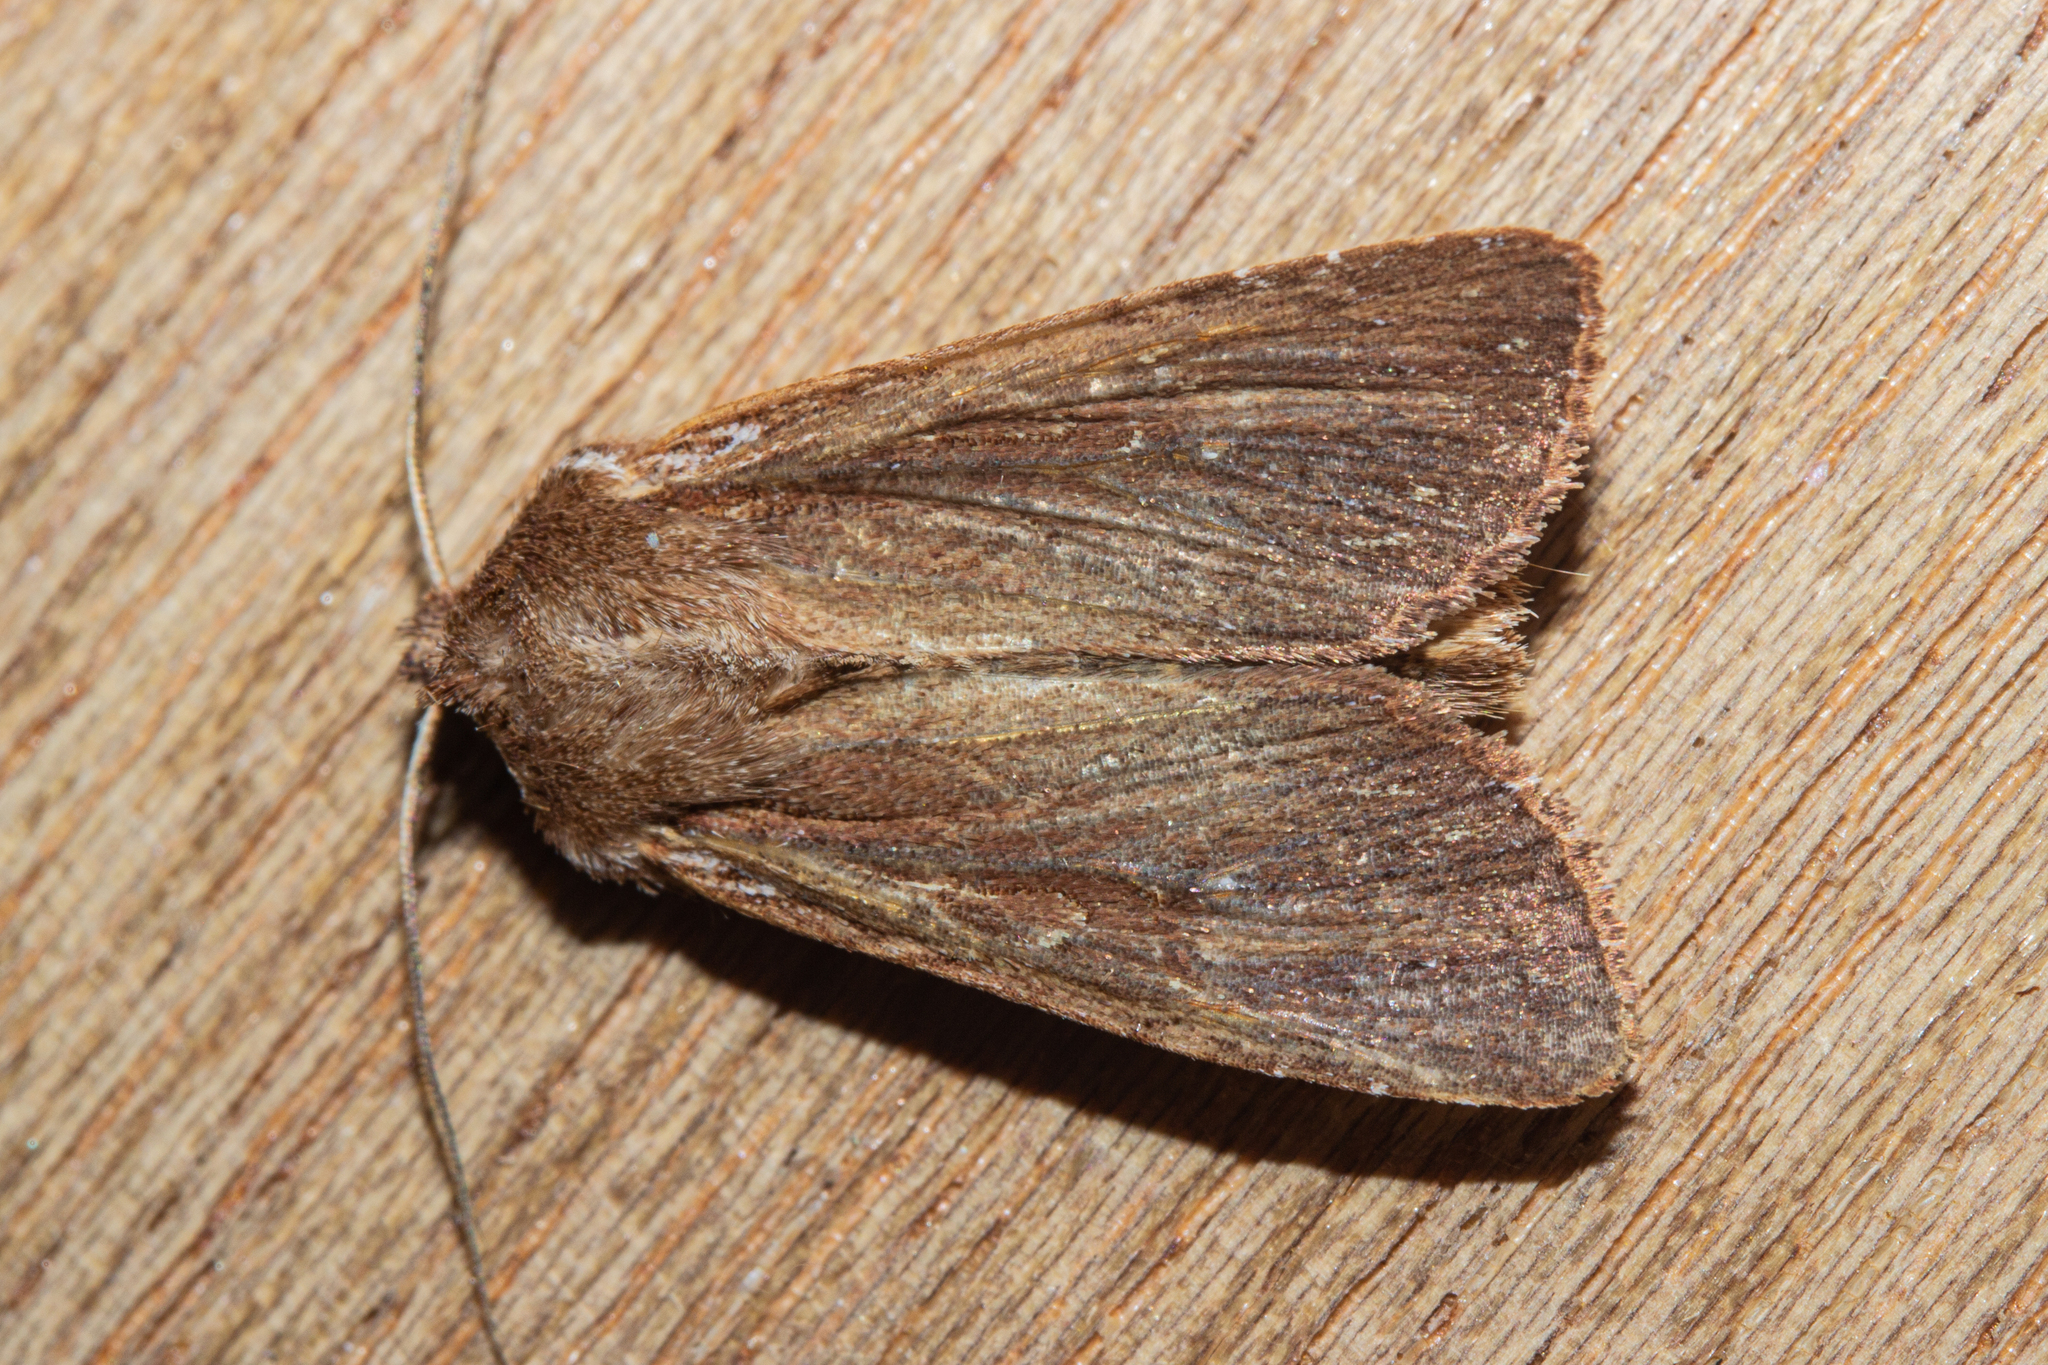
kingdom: Animalia
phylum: Arthropoda
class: Insecta
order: Lepidoptera
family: Noctuidae
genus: Ichneutica
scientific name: Ichneutica
